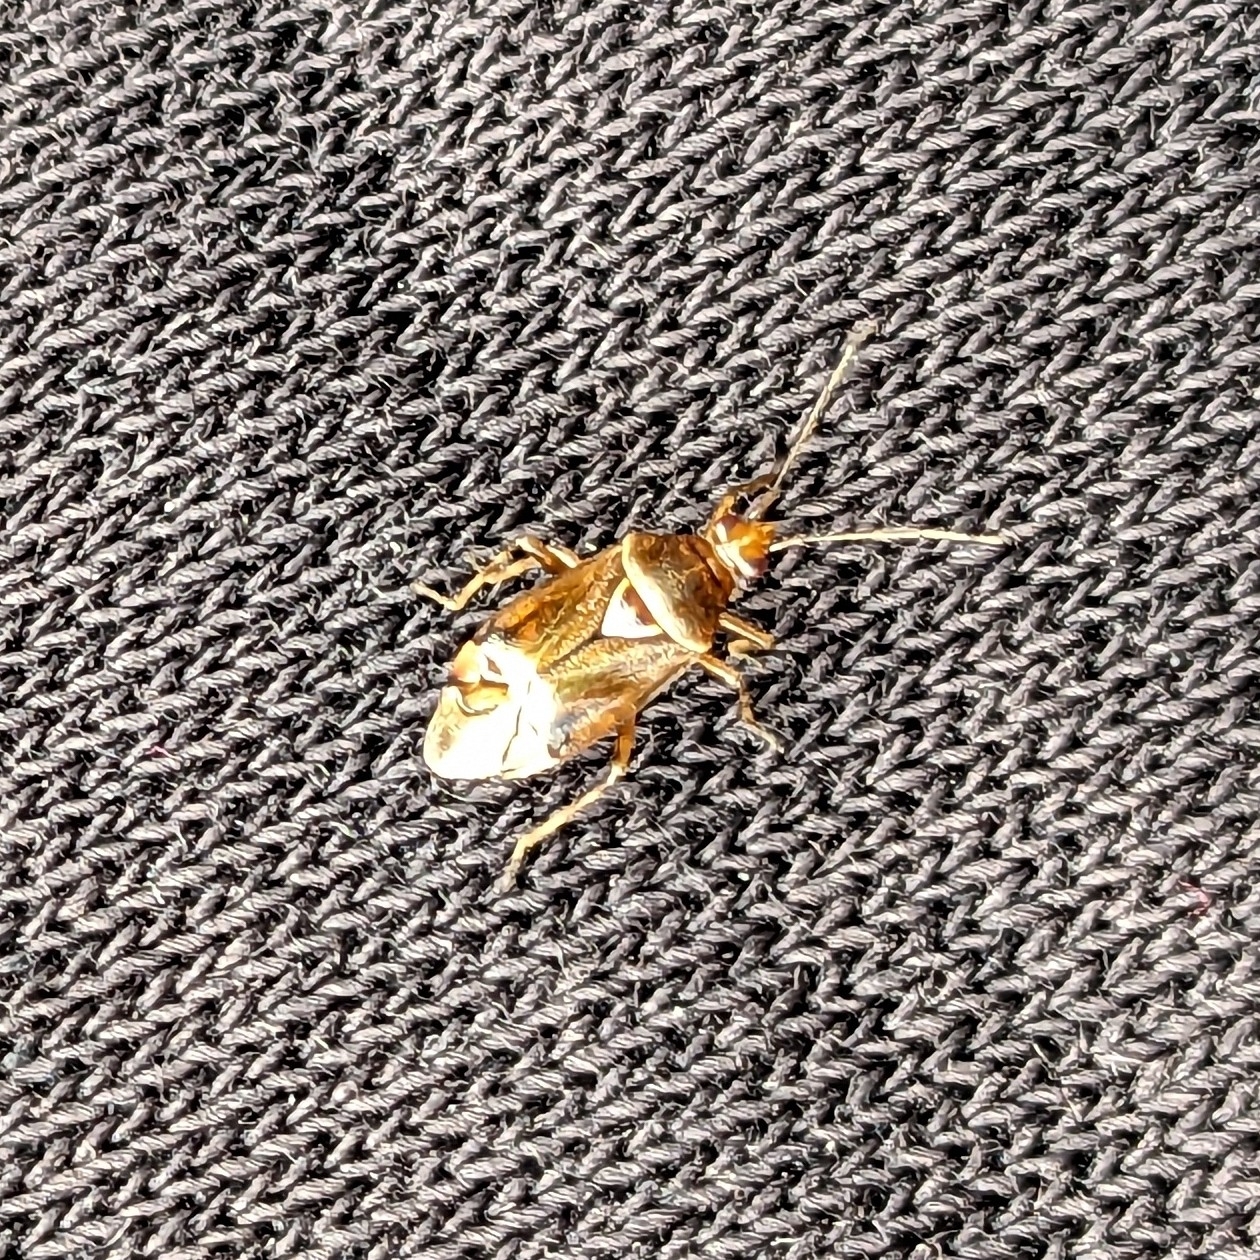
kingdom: Animalia
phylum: Arthropoda
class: Insecta
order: Hemiptera
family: Miridae
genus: Deraeocoris
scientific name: Deraeocoris flavilinea
